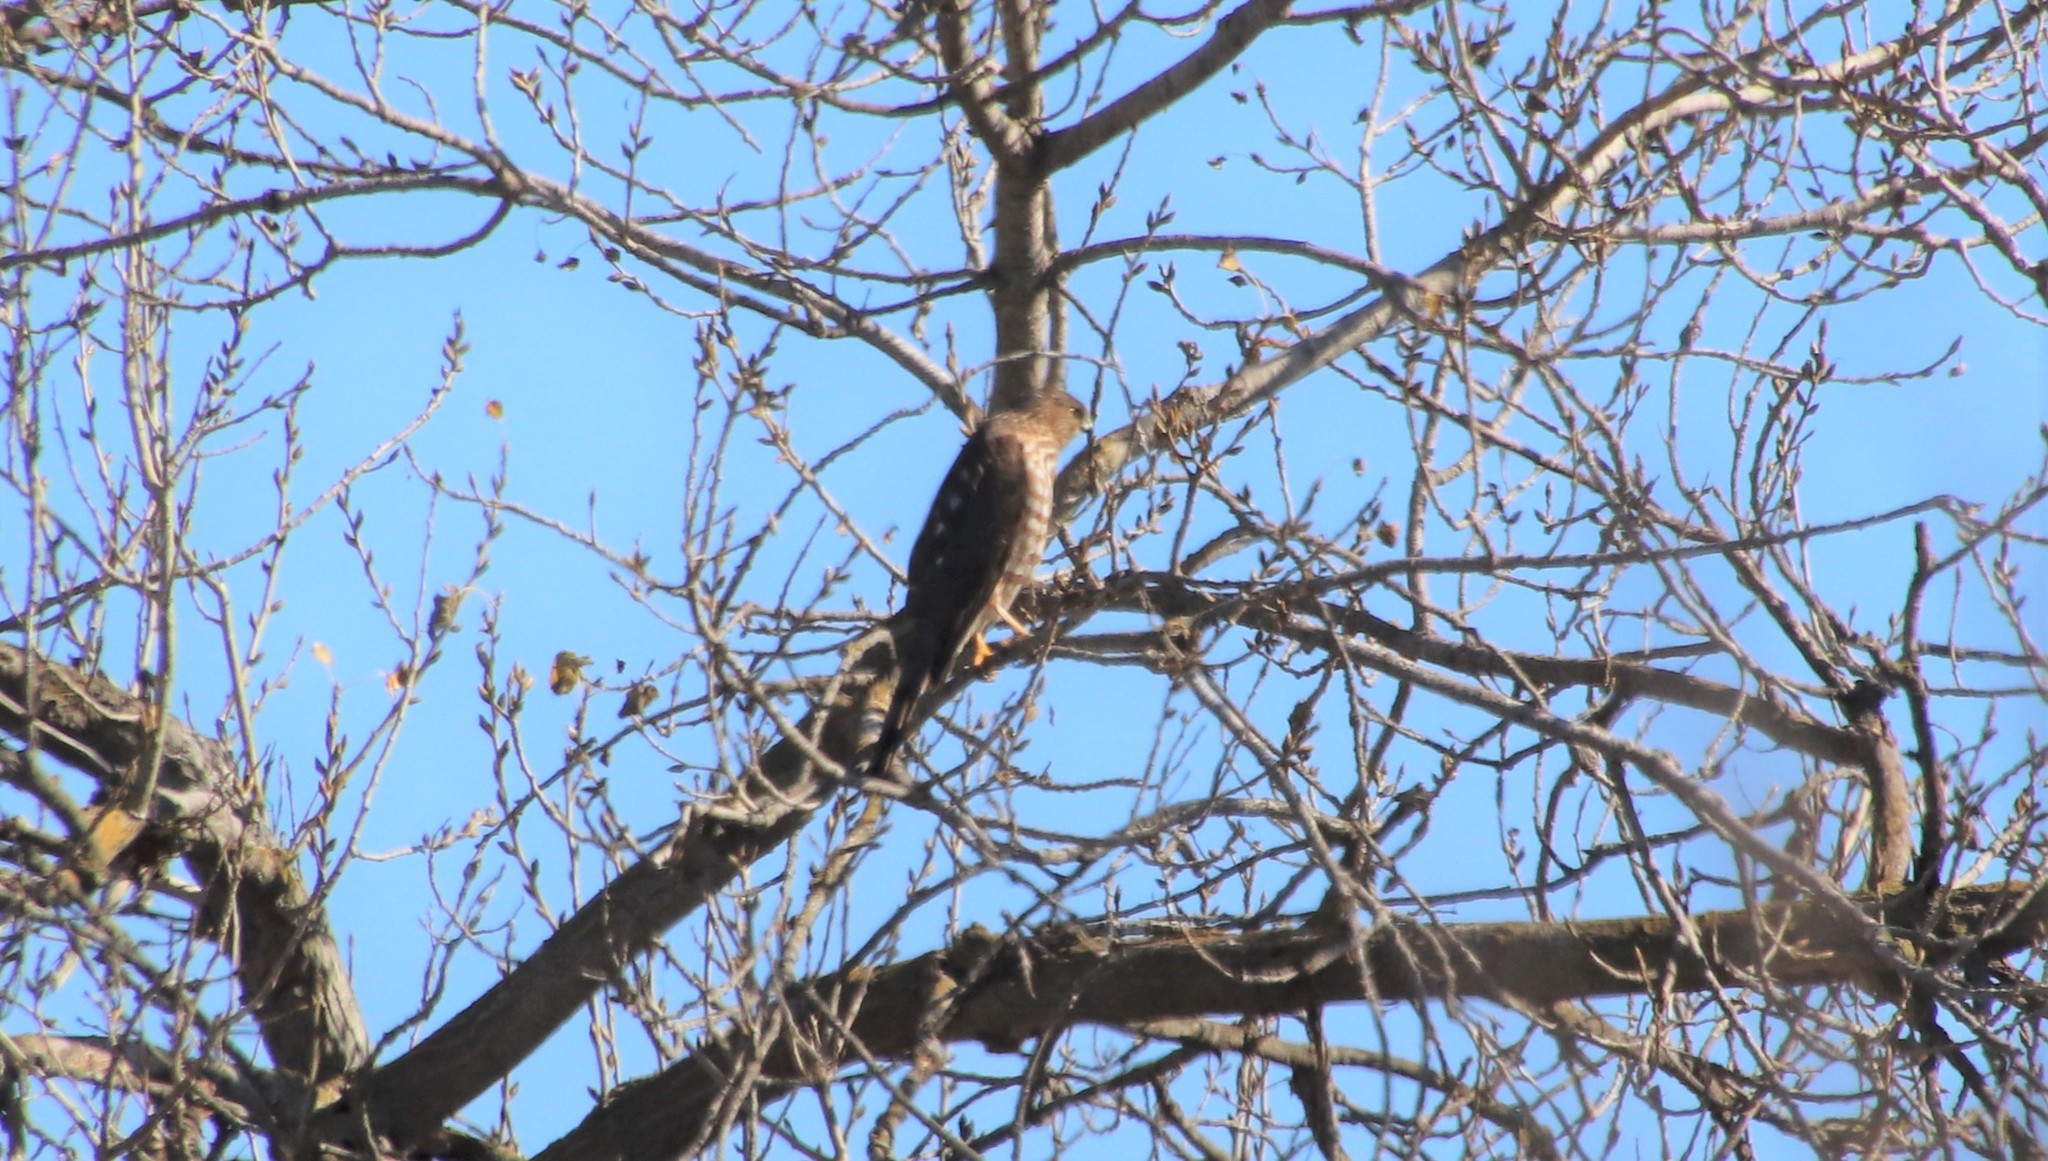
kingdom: Animalia
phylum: Chordata
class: Aves
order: Accipitriformes
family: Accipitridae
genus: Accipiter
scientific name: Accipiter cooperii
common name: Cooper's hawk
